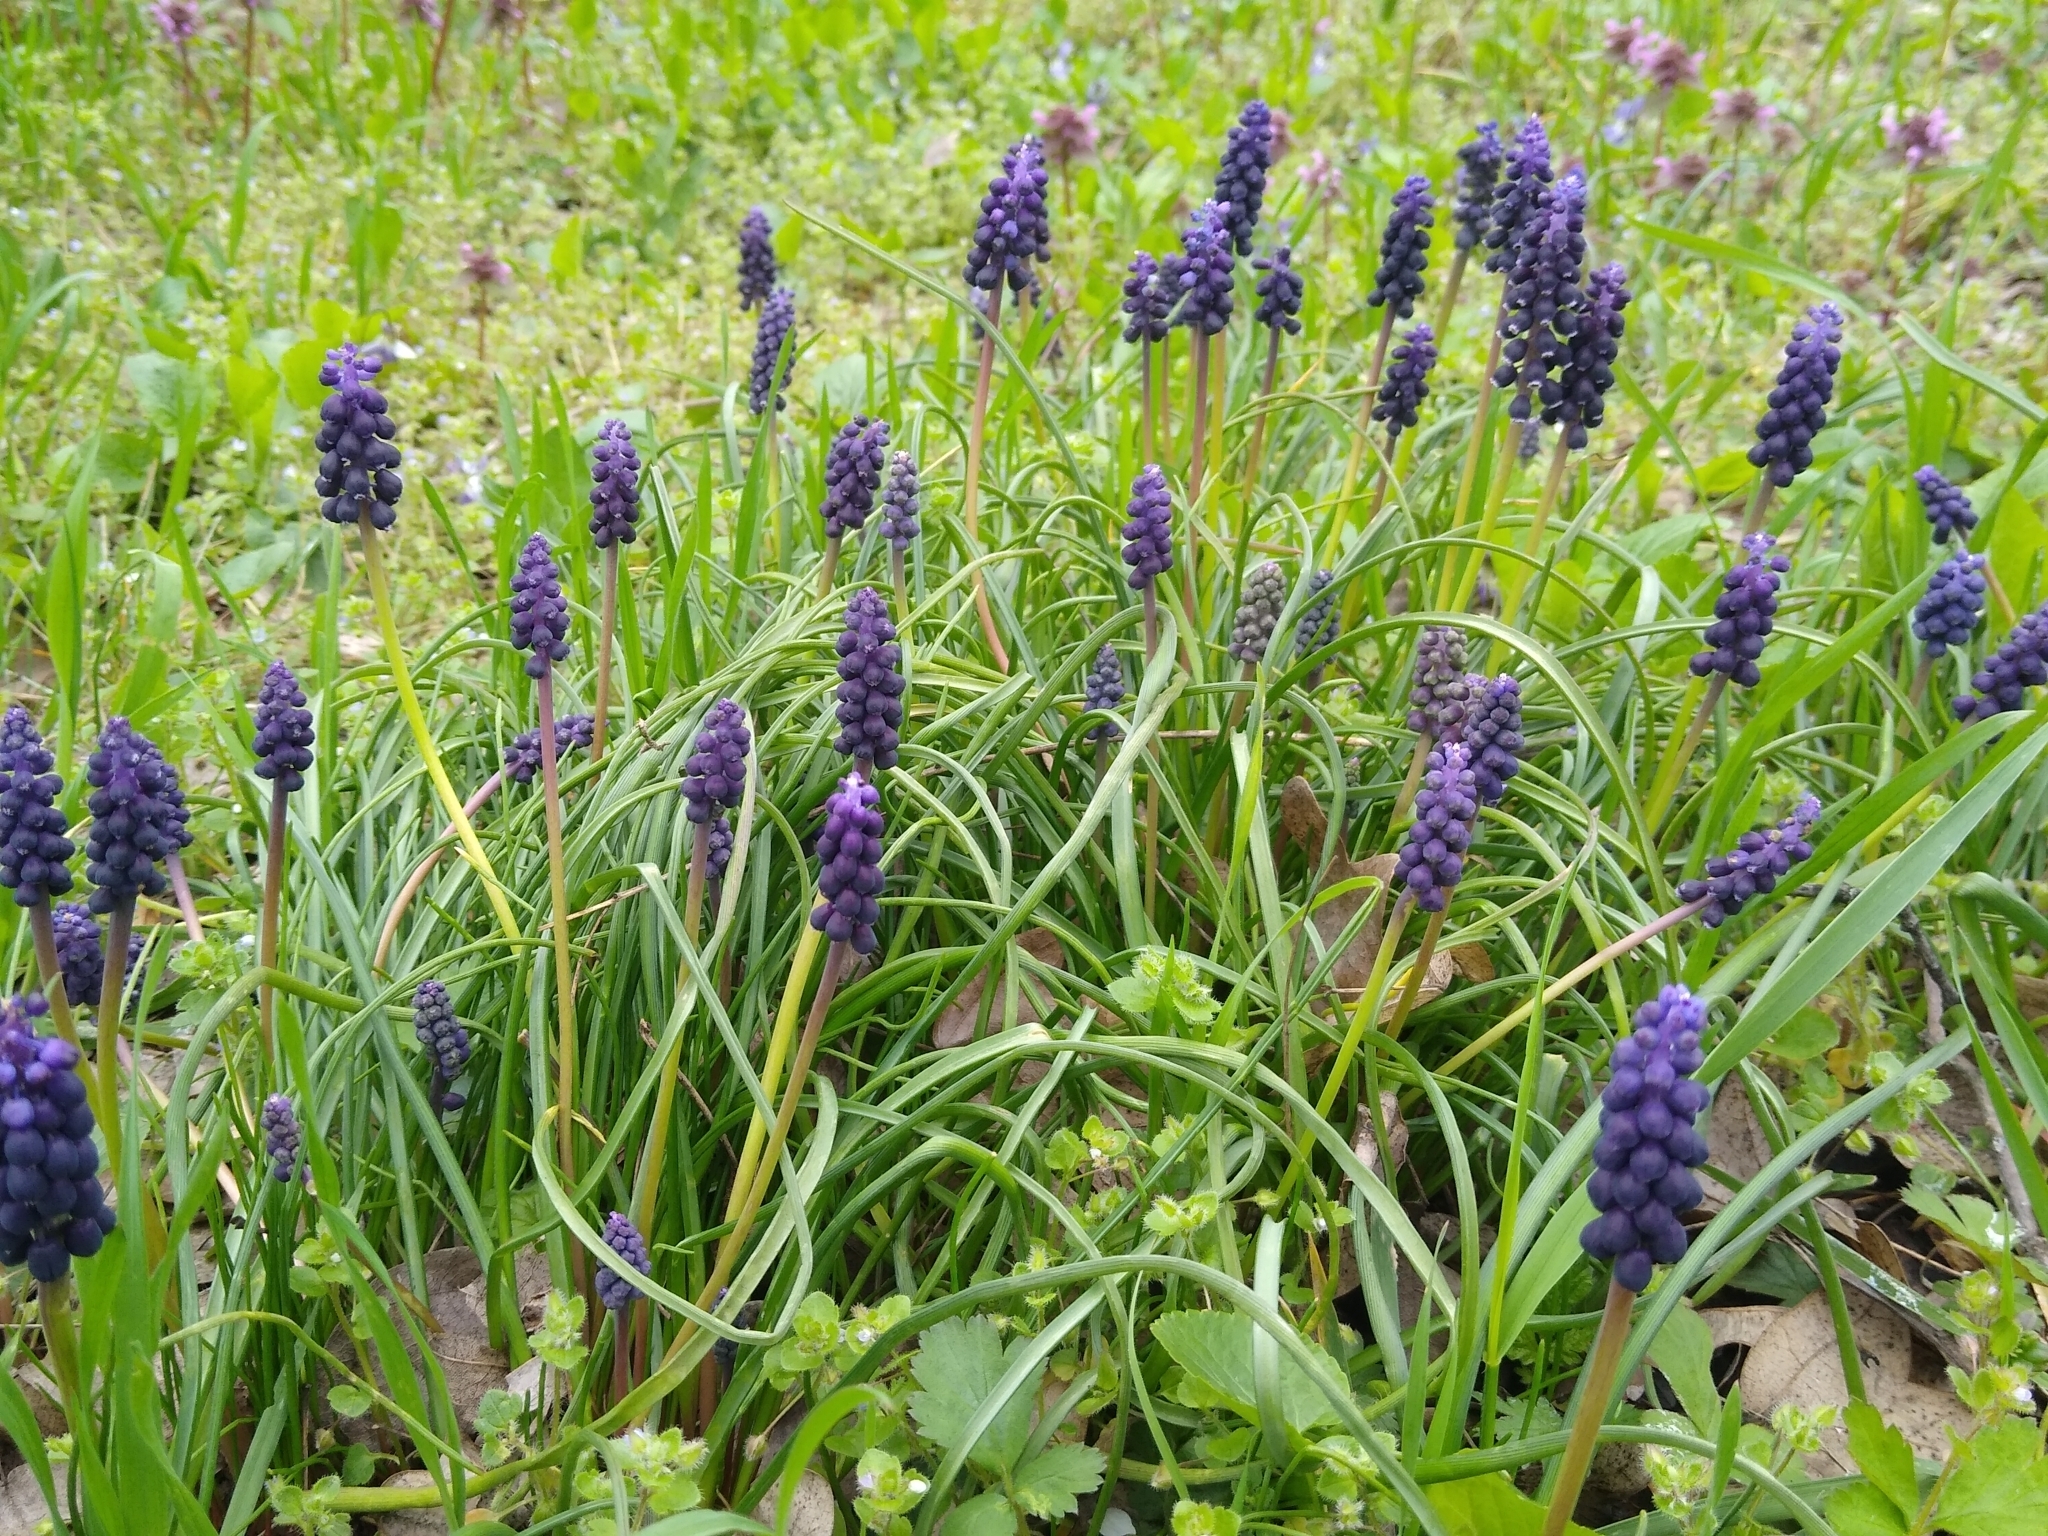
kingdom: Plantae
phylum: Tracheophyta
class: Liliopsida
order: Asparagales
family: Asparagaceae
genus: Muscari
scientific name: Muscari neglectum
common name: Grape-hyacinth
